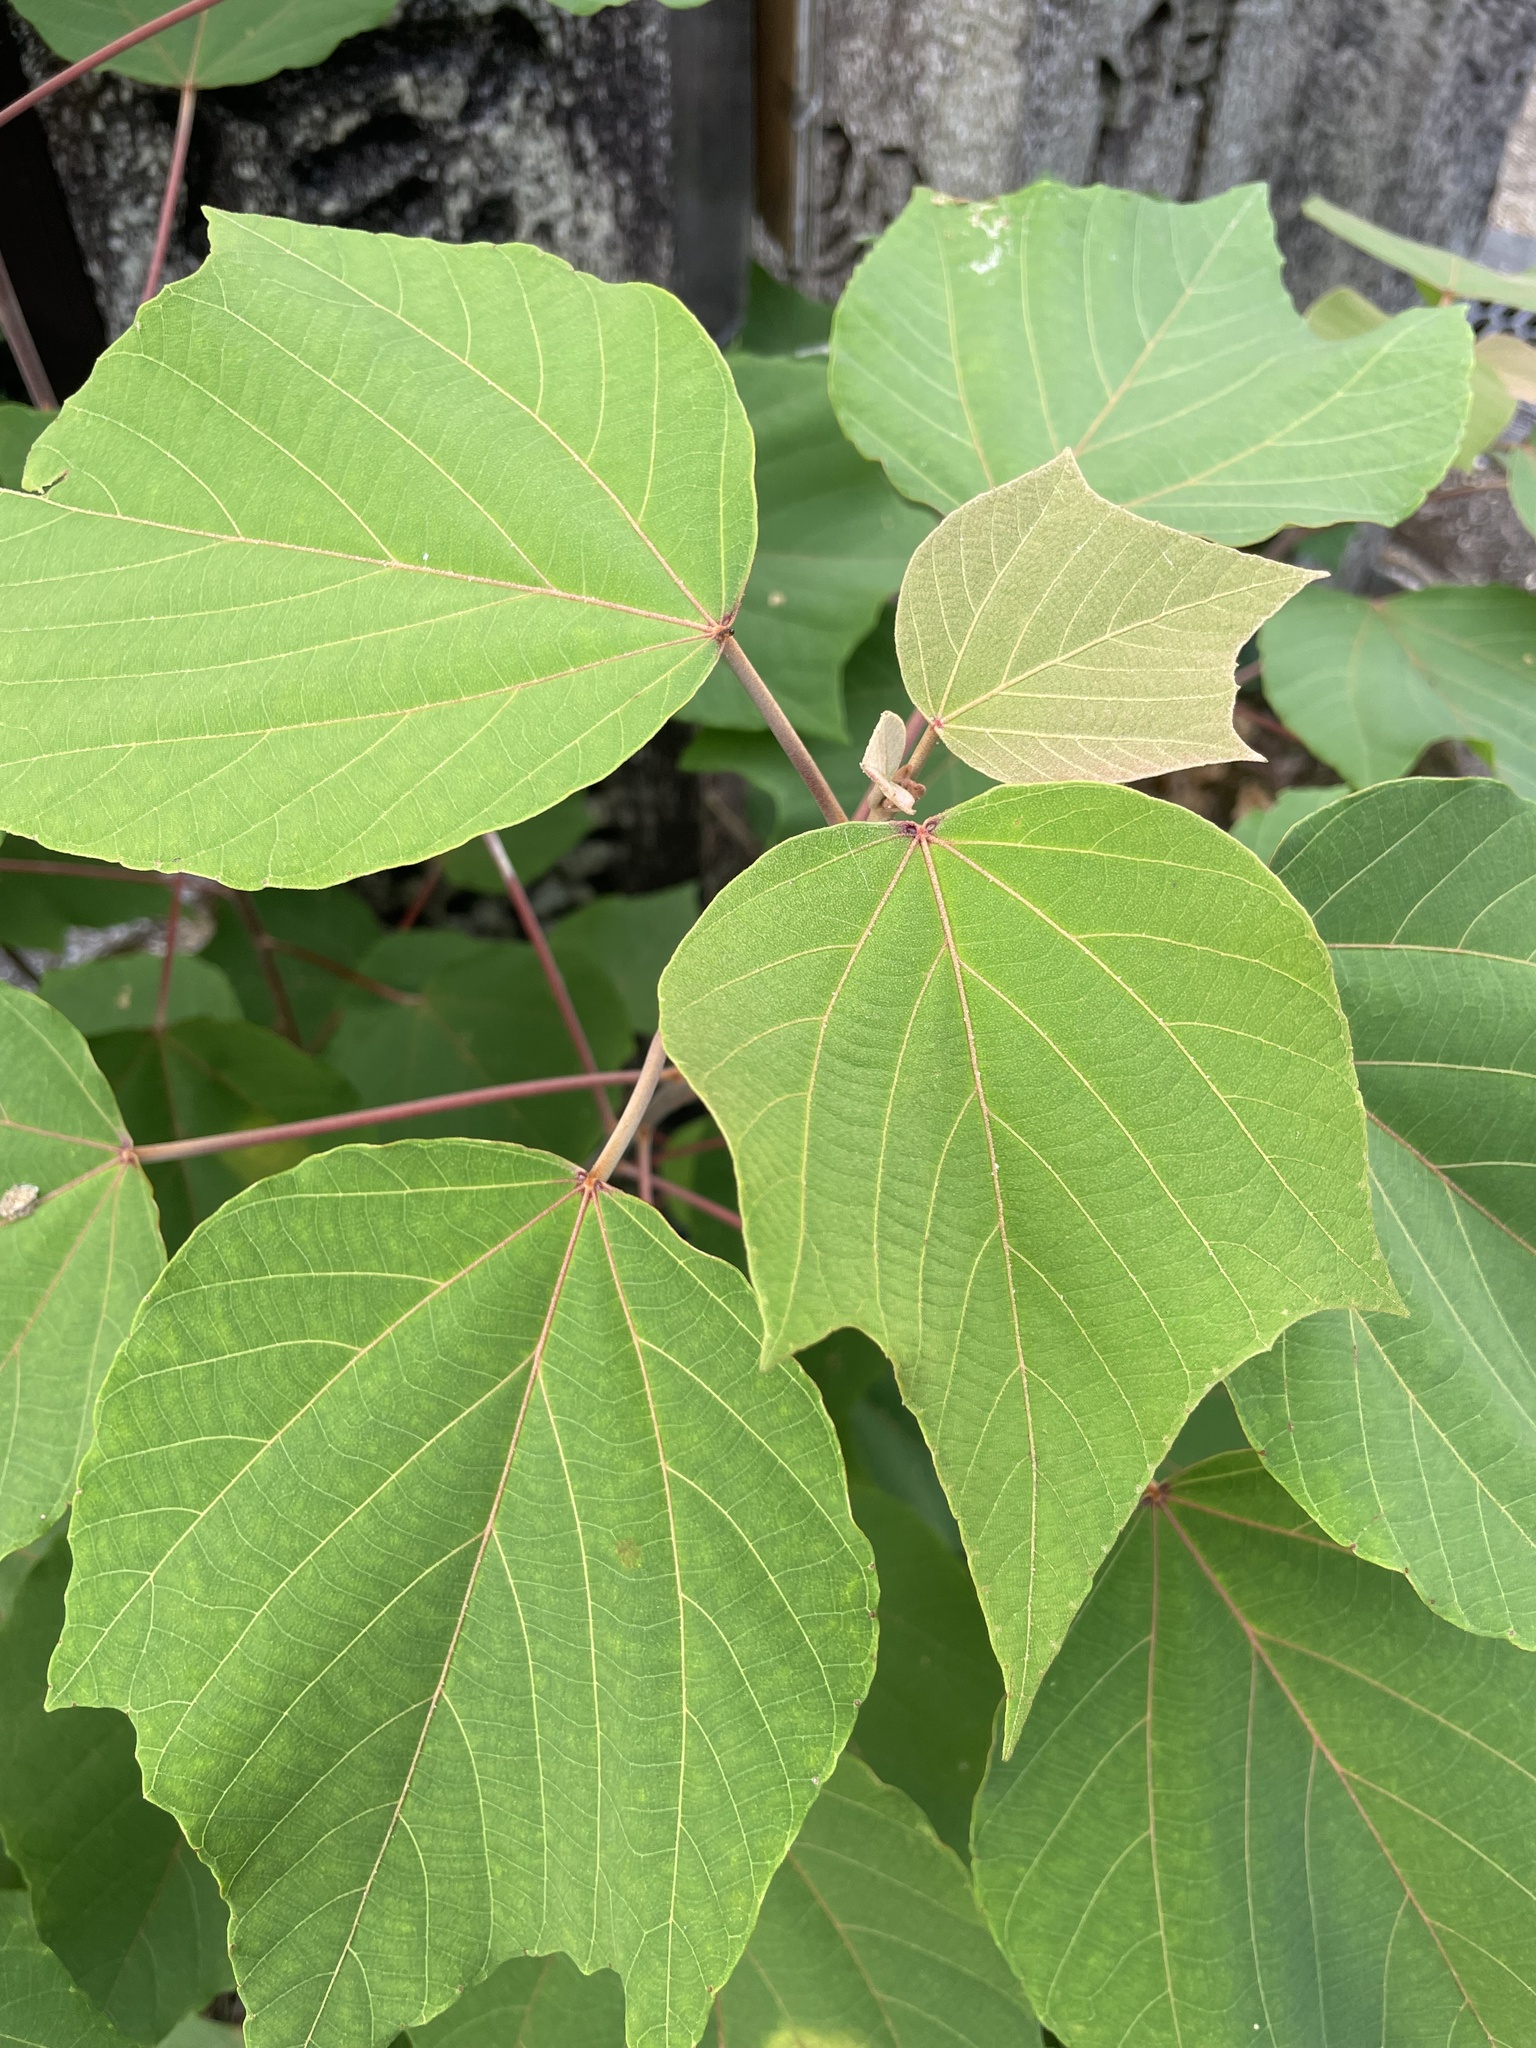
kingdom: Plantae
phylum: Tracheophyta
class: Magnoliopsida
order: Malpighiales
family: Euphorbiaceae
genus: Mallotus
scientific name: Mallotus japonicus
